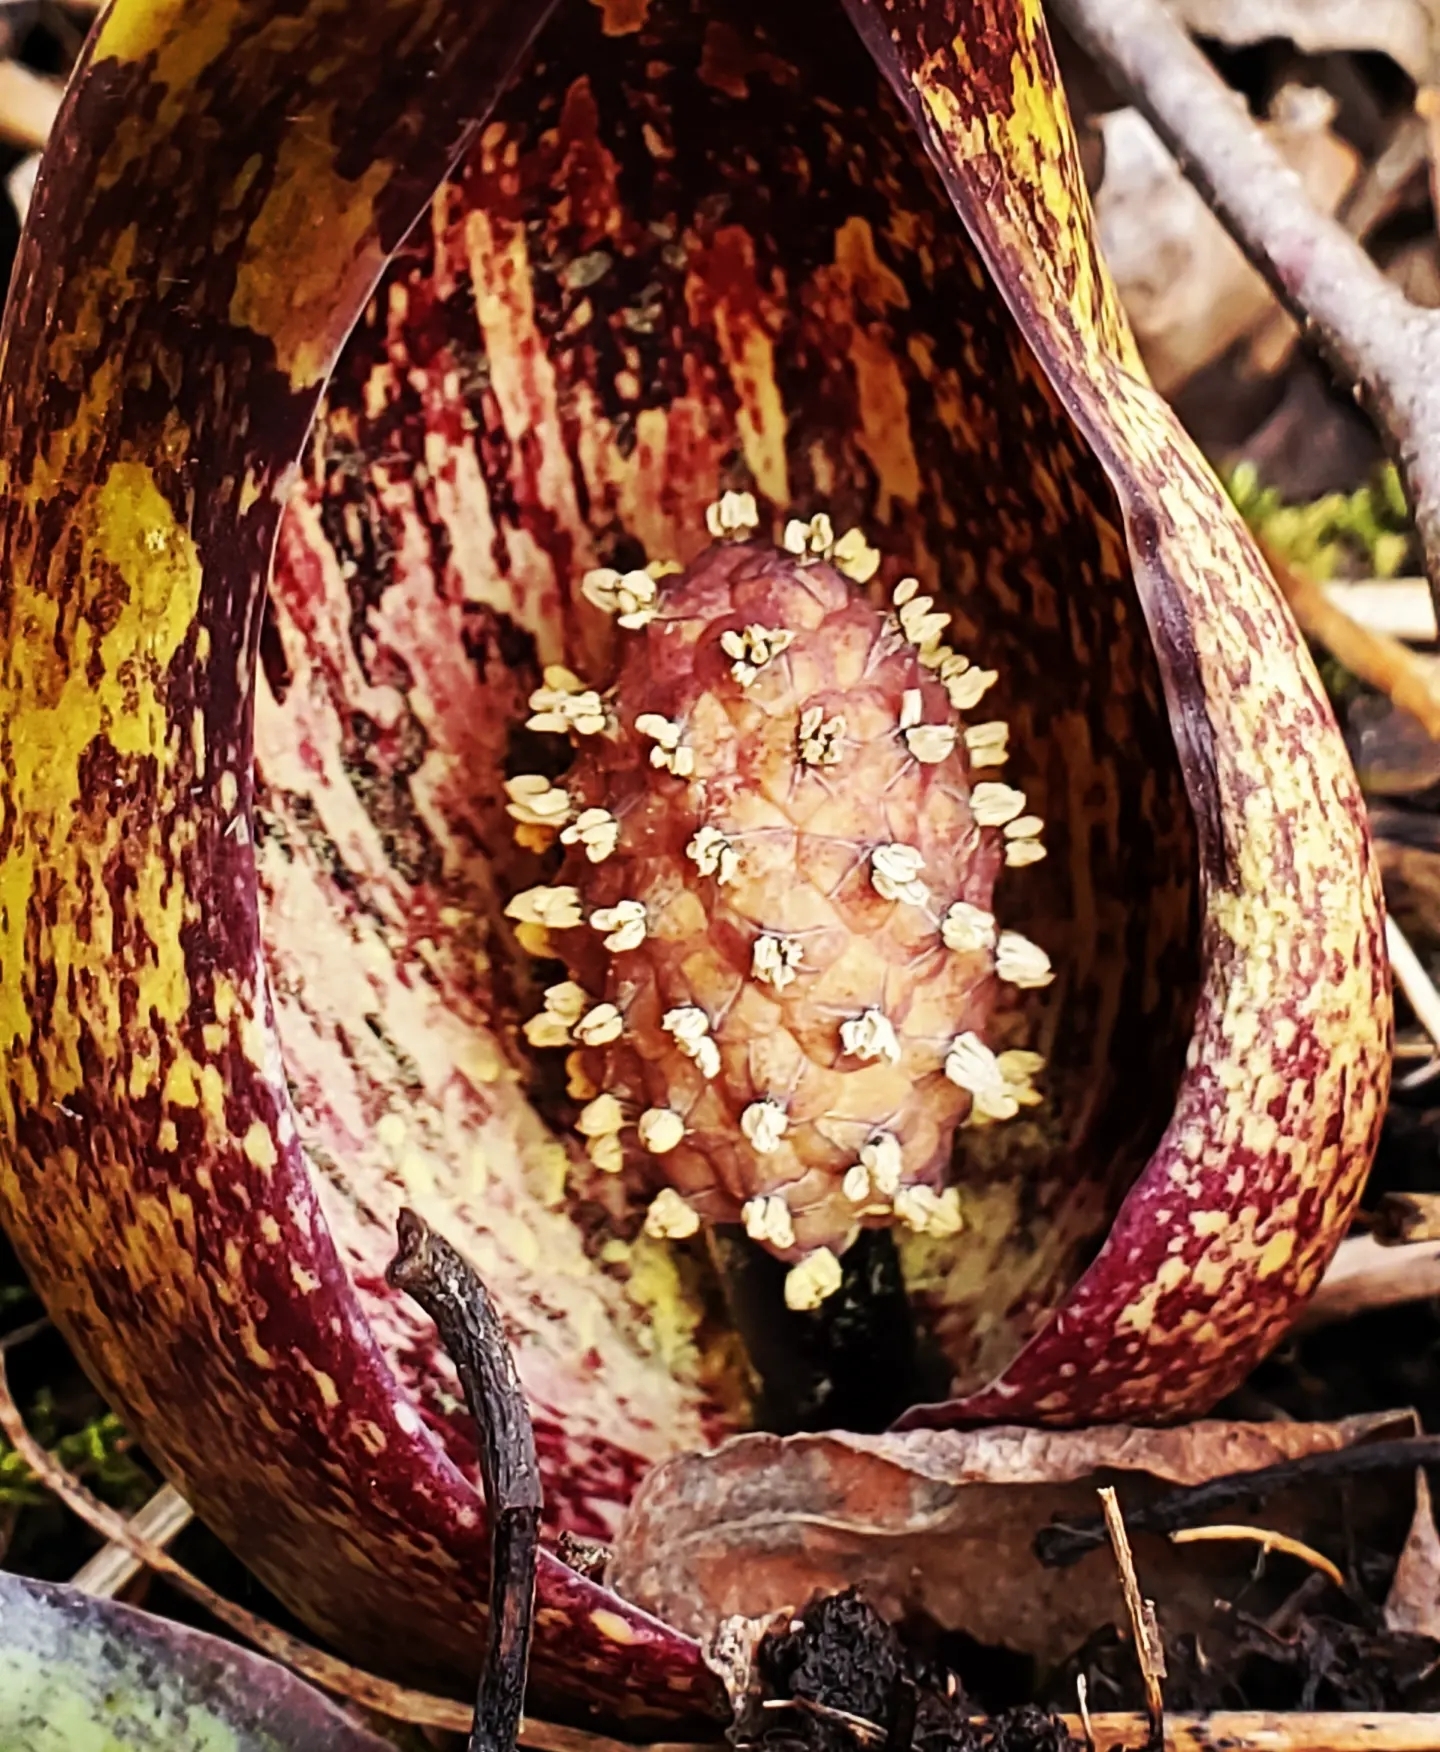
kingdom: Plantae
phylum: Tracheophyta
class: Liliopsida
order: Alismatales
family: Araceae
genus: Symplocarpus
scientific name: Symplocarpus foetidus
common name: Eastern skunk cabbage
